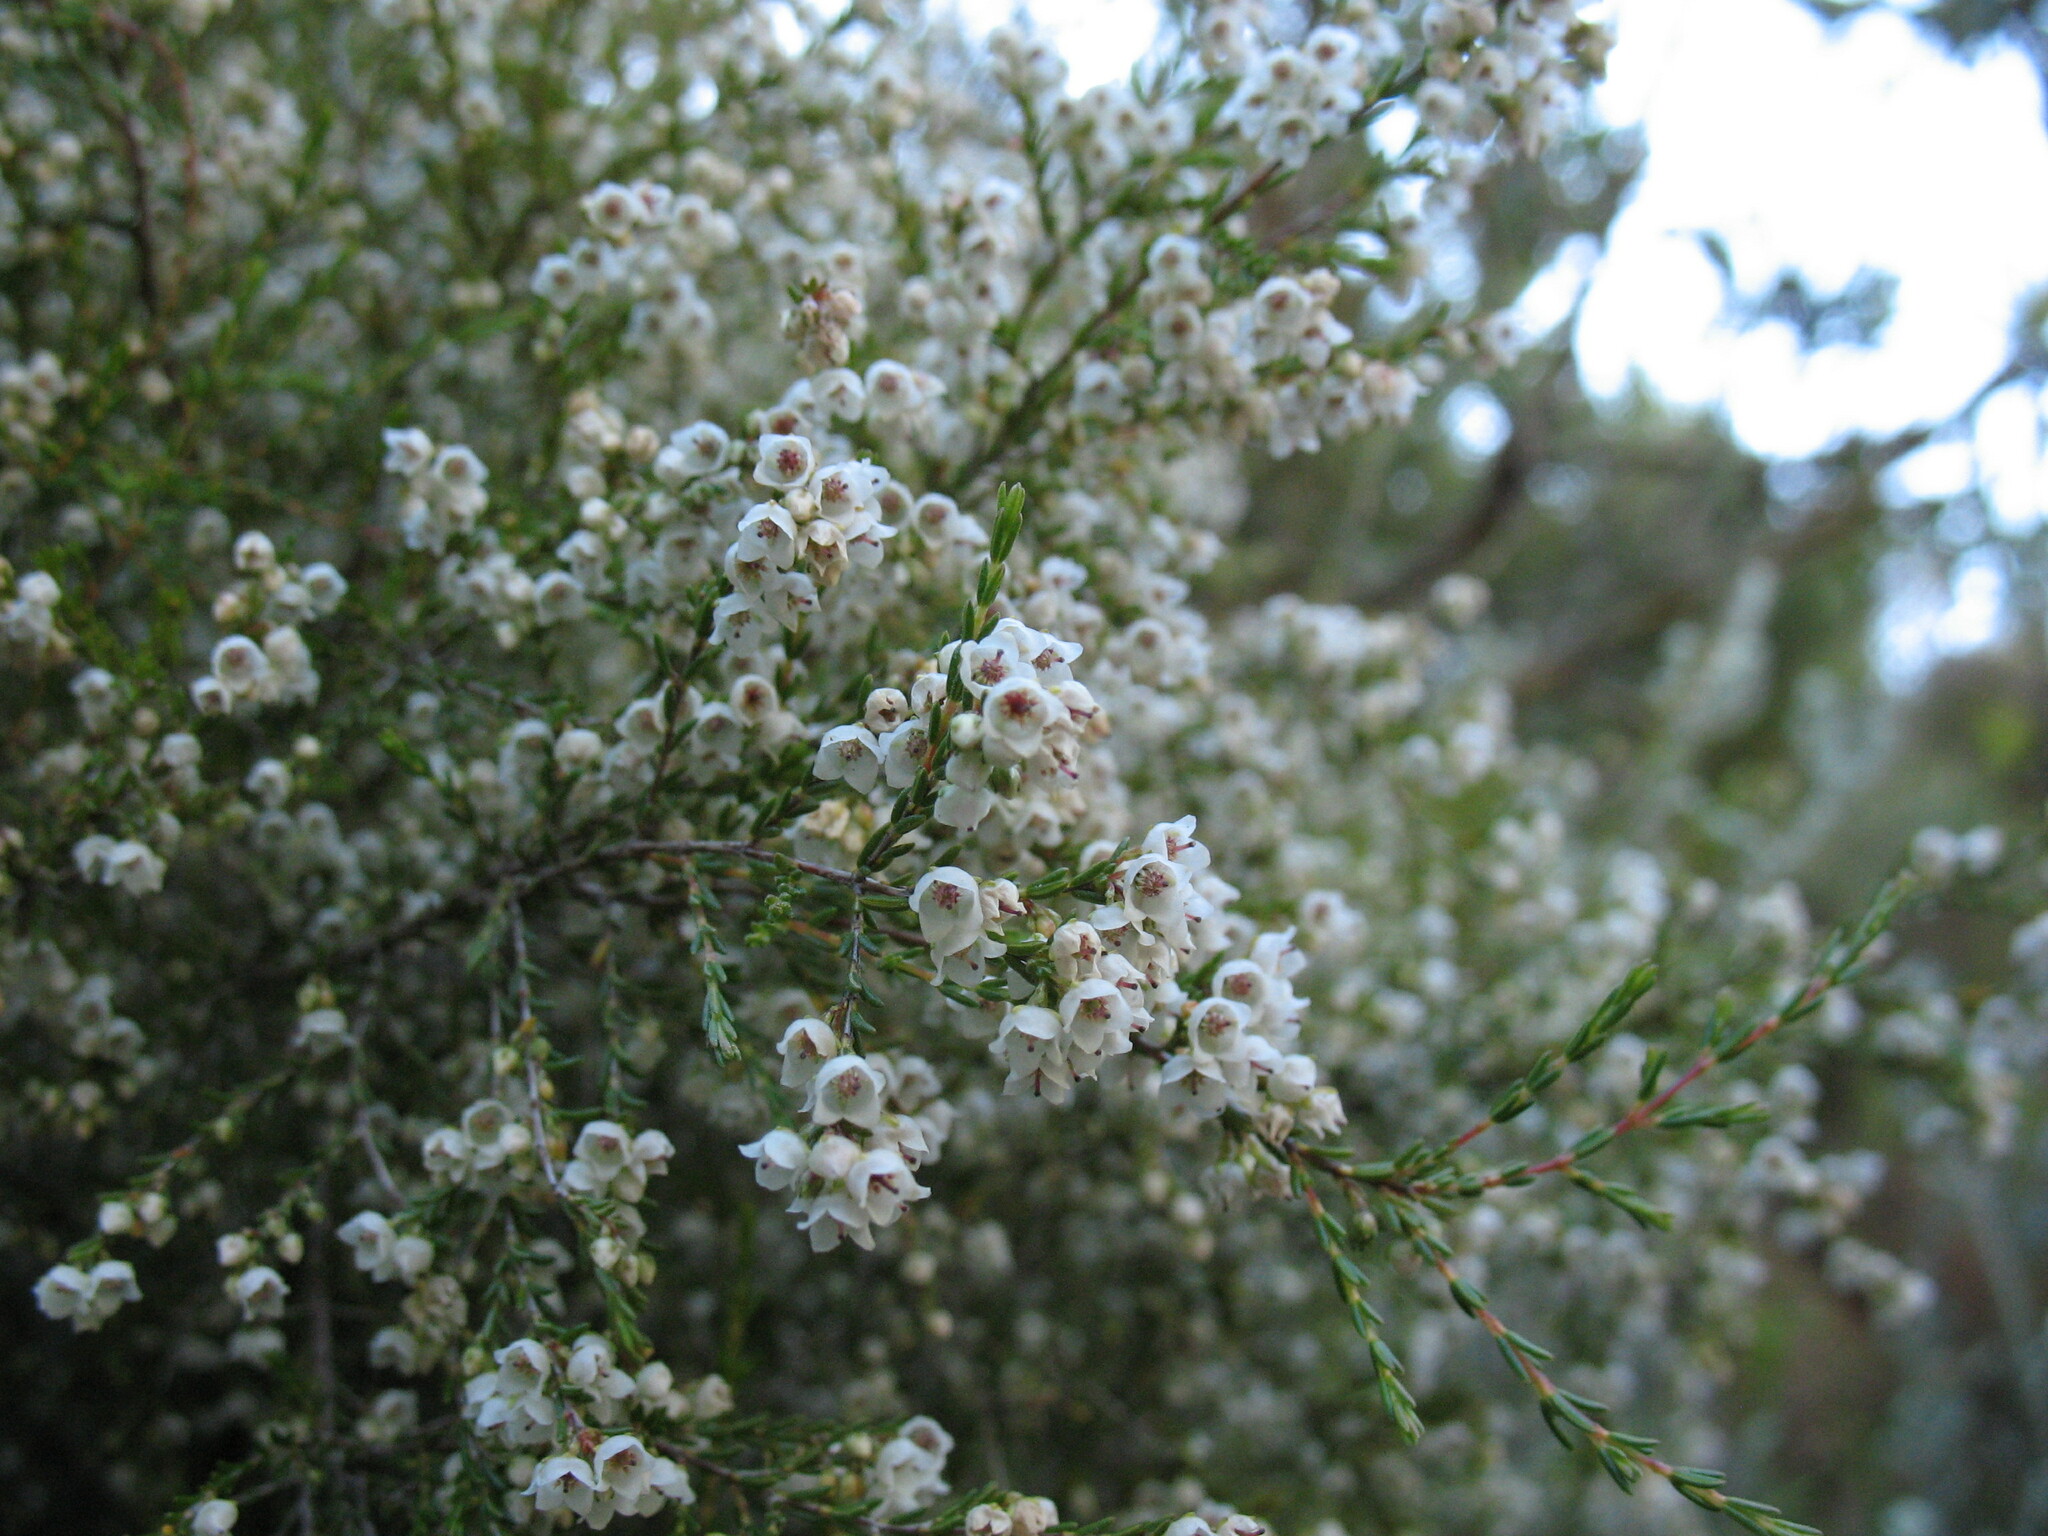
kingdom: Plantae
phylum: Tracheophyta
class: Magnoliopsida
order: Ericales
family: Ericaceae
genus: Erica
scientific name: Erica tenuis
